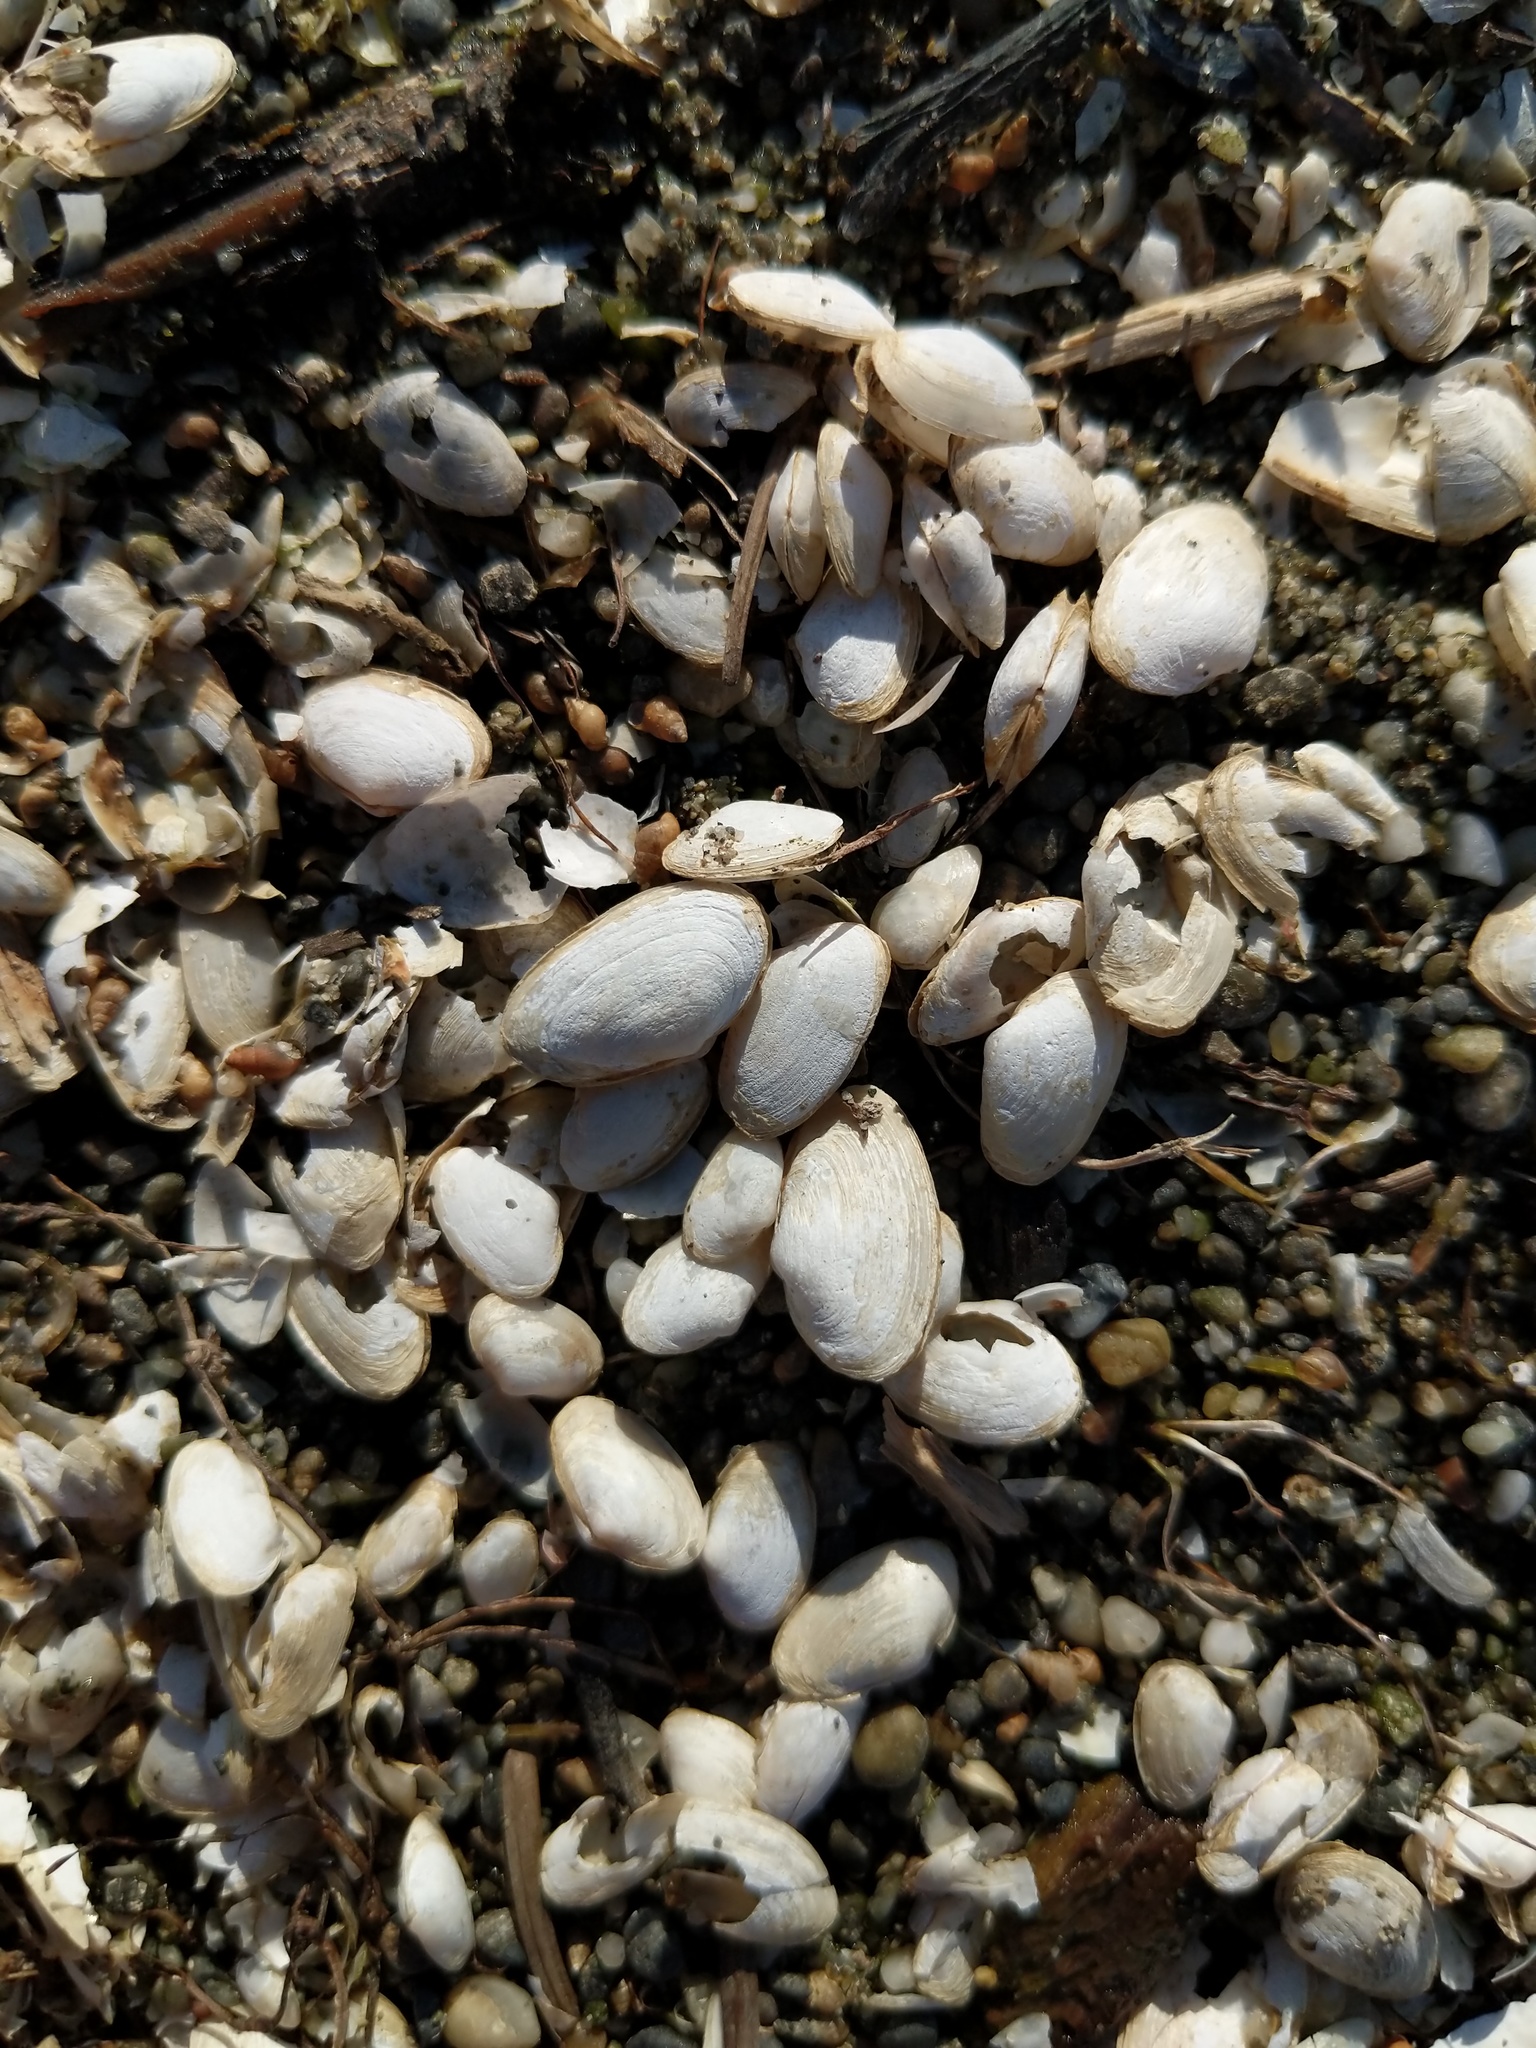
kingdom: Animalia
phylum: Mollusca
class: Bivalvia
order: Myida
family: Myidae
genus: Mya
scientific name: Mya arenaria
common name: Soft-shelled clam
